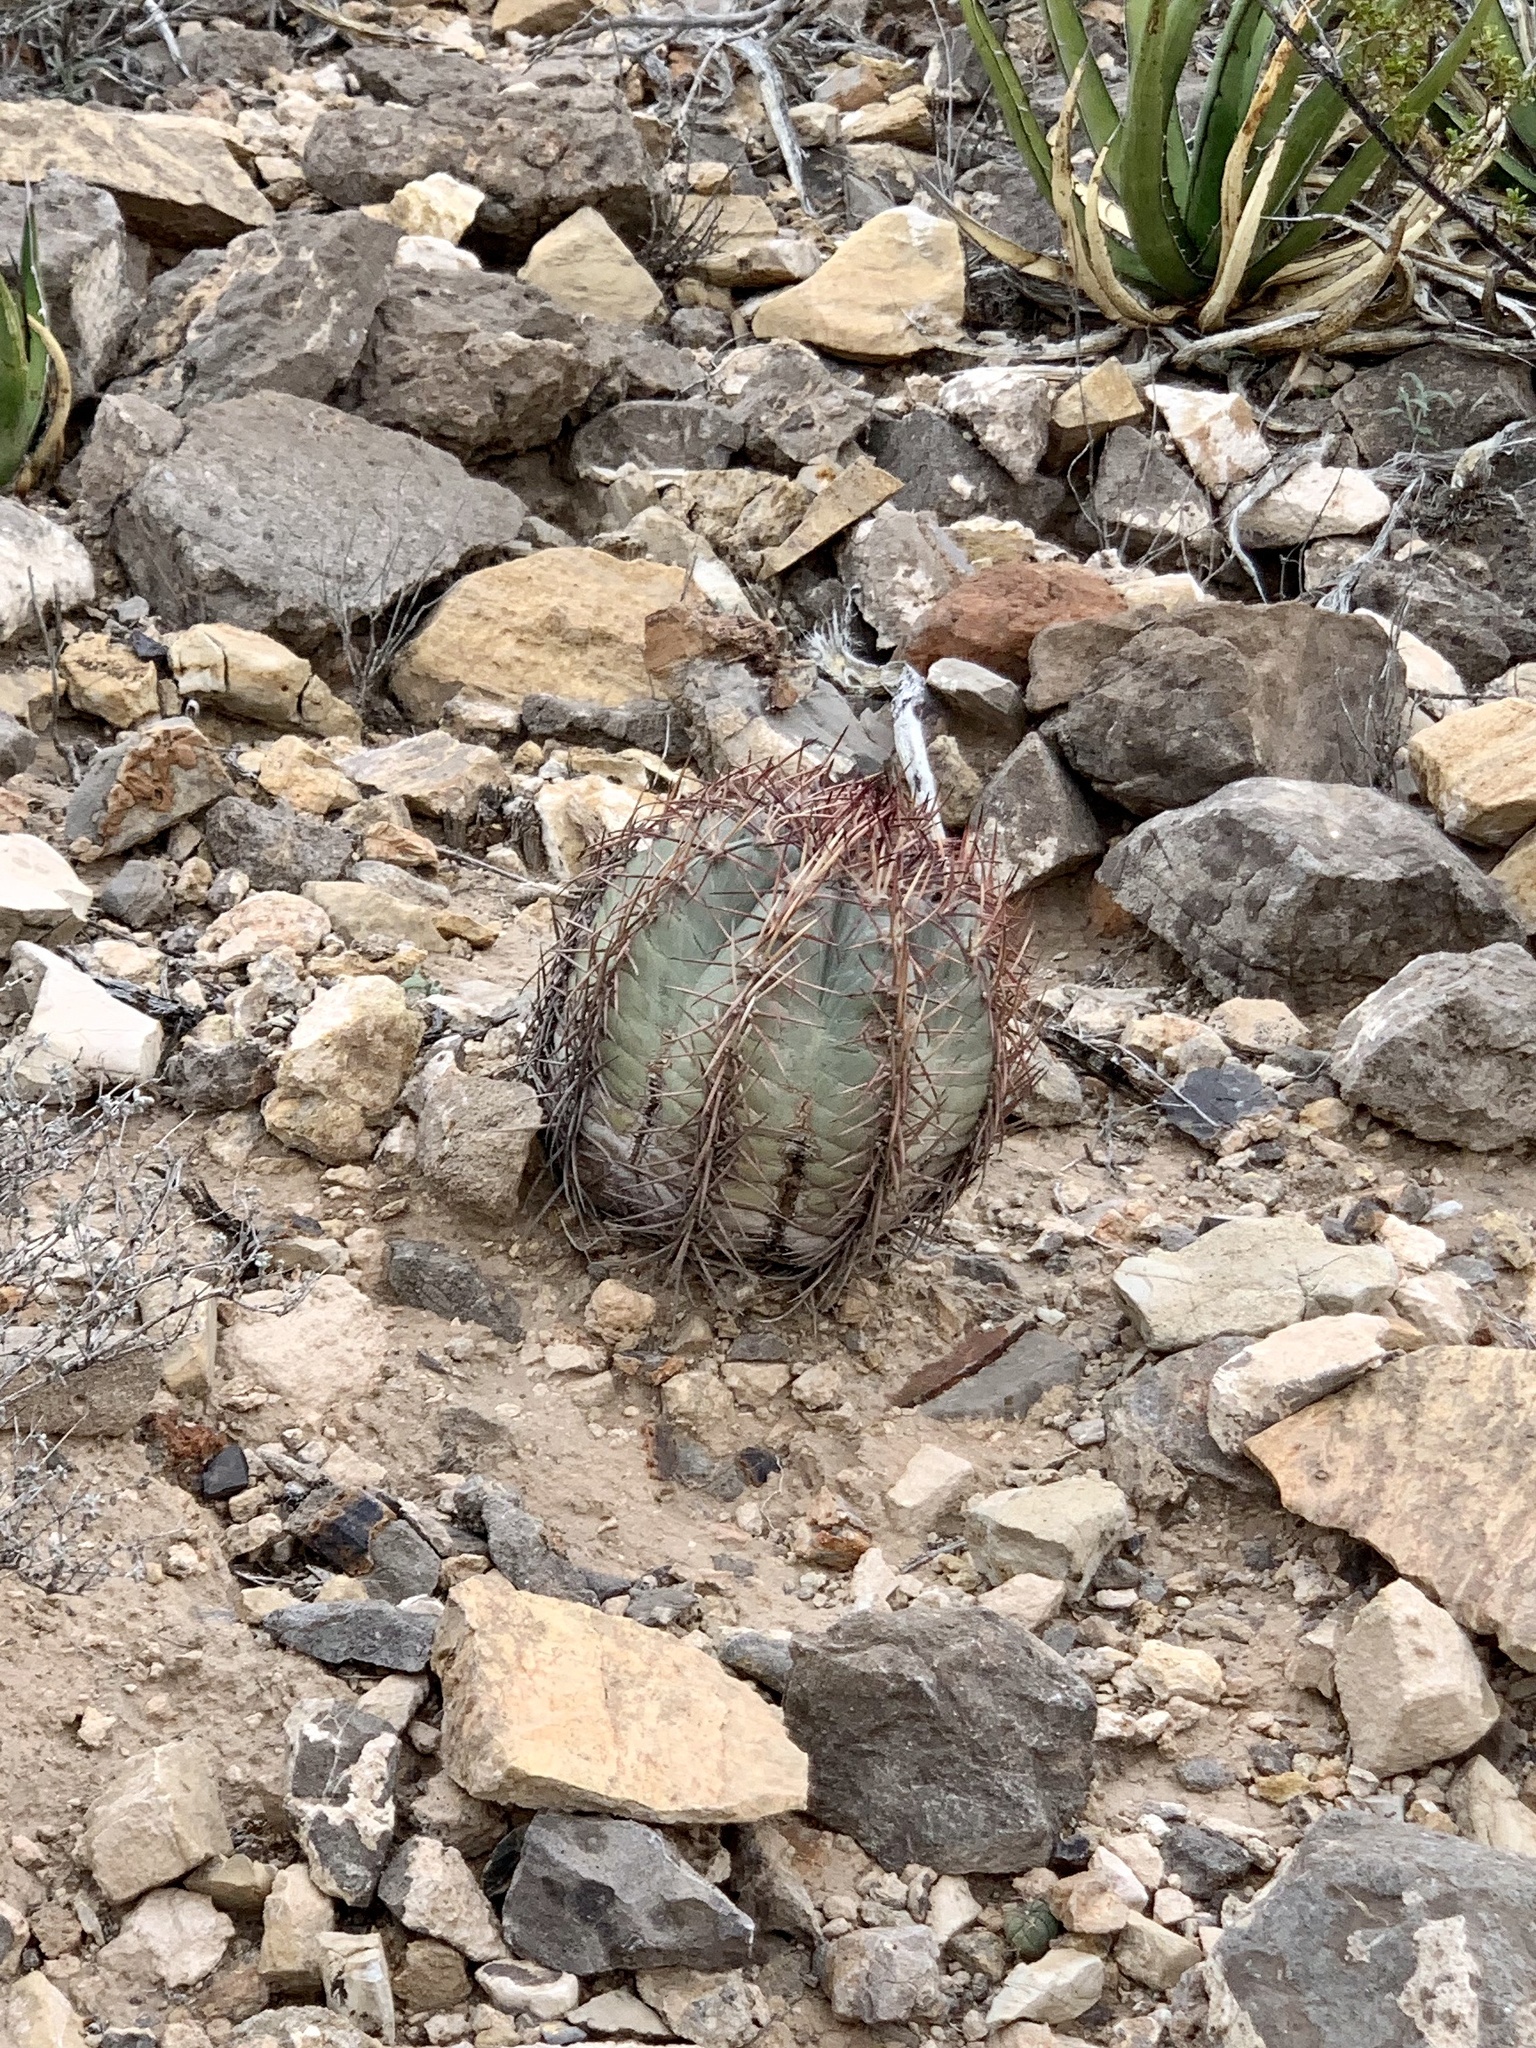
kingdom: Plantae
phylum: Tracheophyta
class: Magnoliopsida
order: Caryophyllales
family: Cactaceae
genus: Echinocactus
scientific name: Echinocactus horizonthalonius
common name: Devilshead
